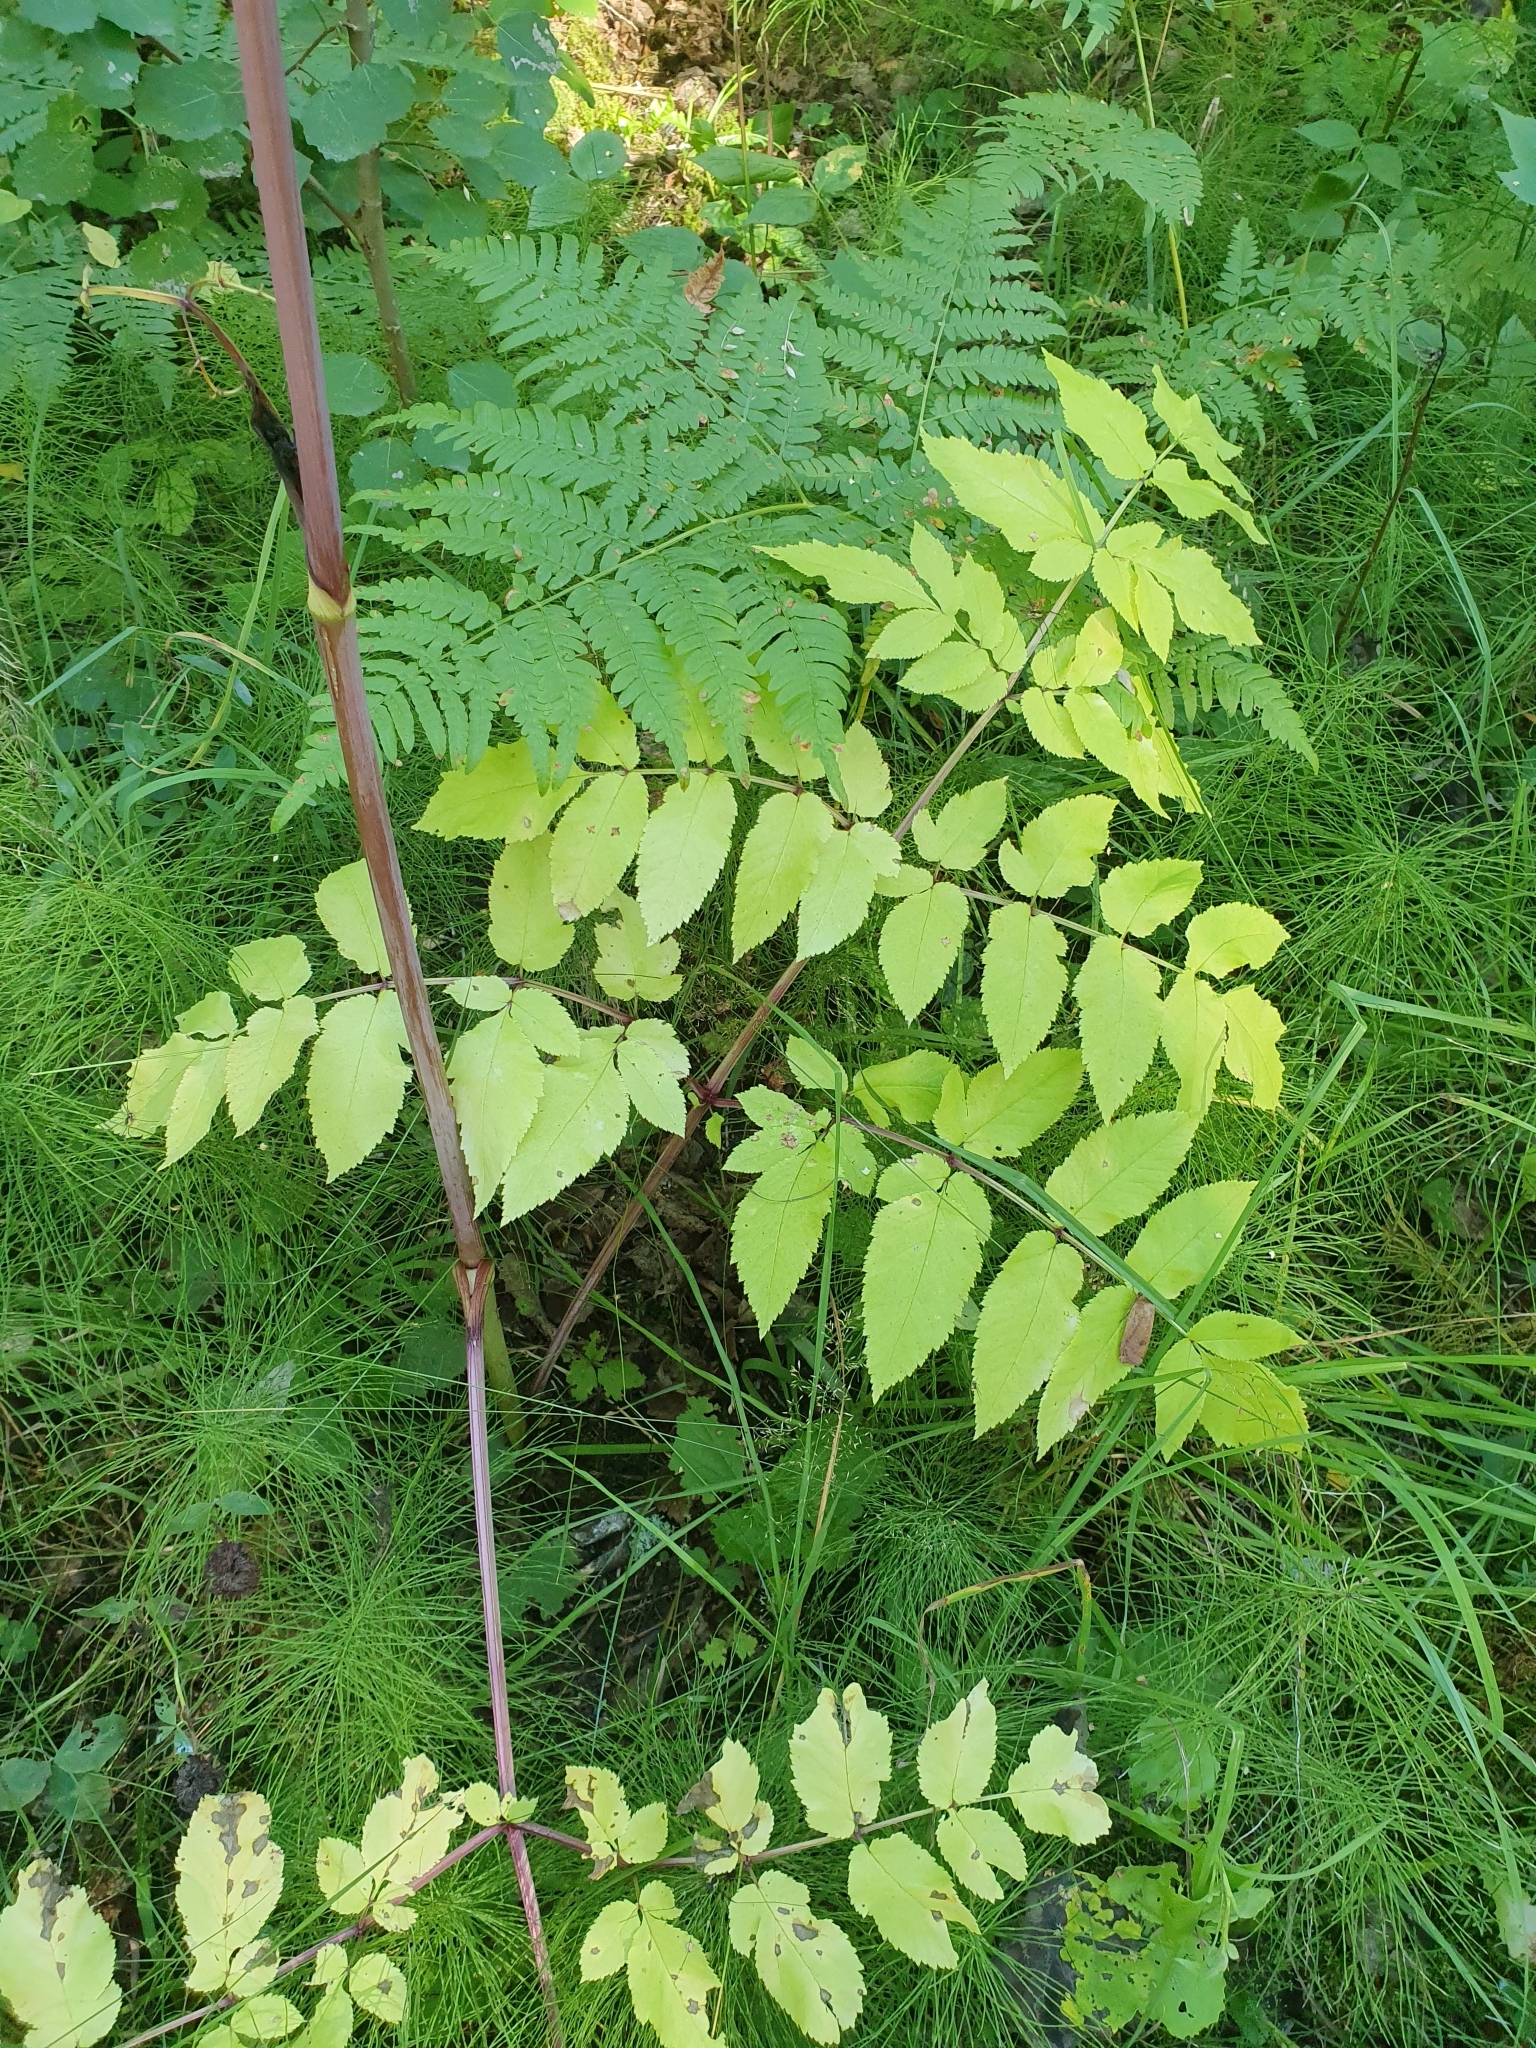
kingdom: Plantae
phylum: Tracheophyta
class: Magnoliopsida
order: Apiales
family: Apiaceae
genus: Angelica
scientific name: Angelica sylvestris
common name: Wild angelica
